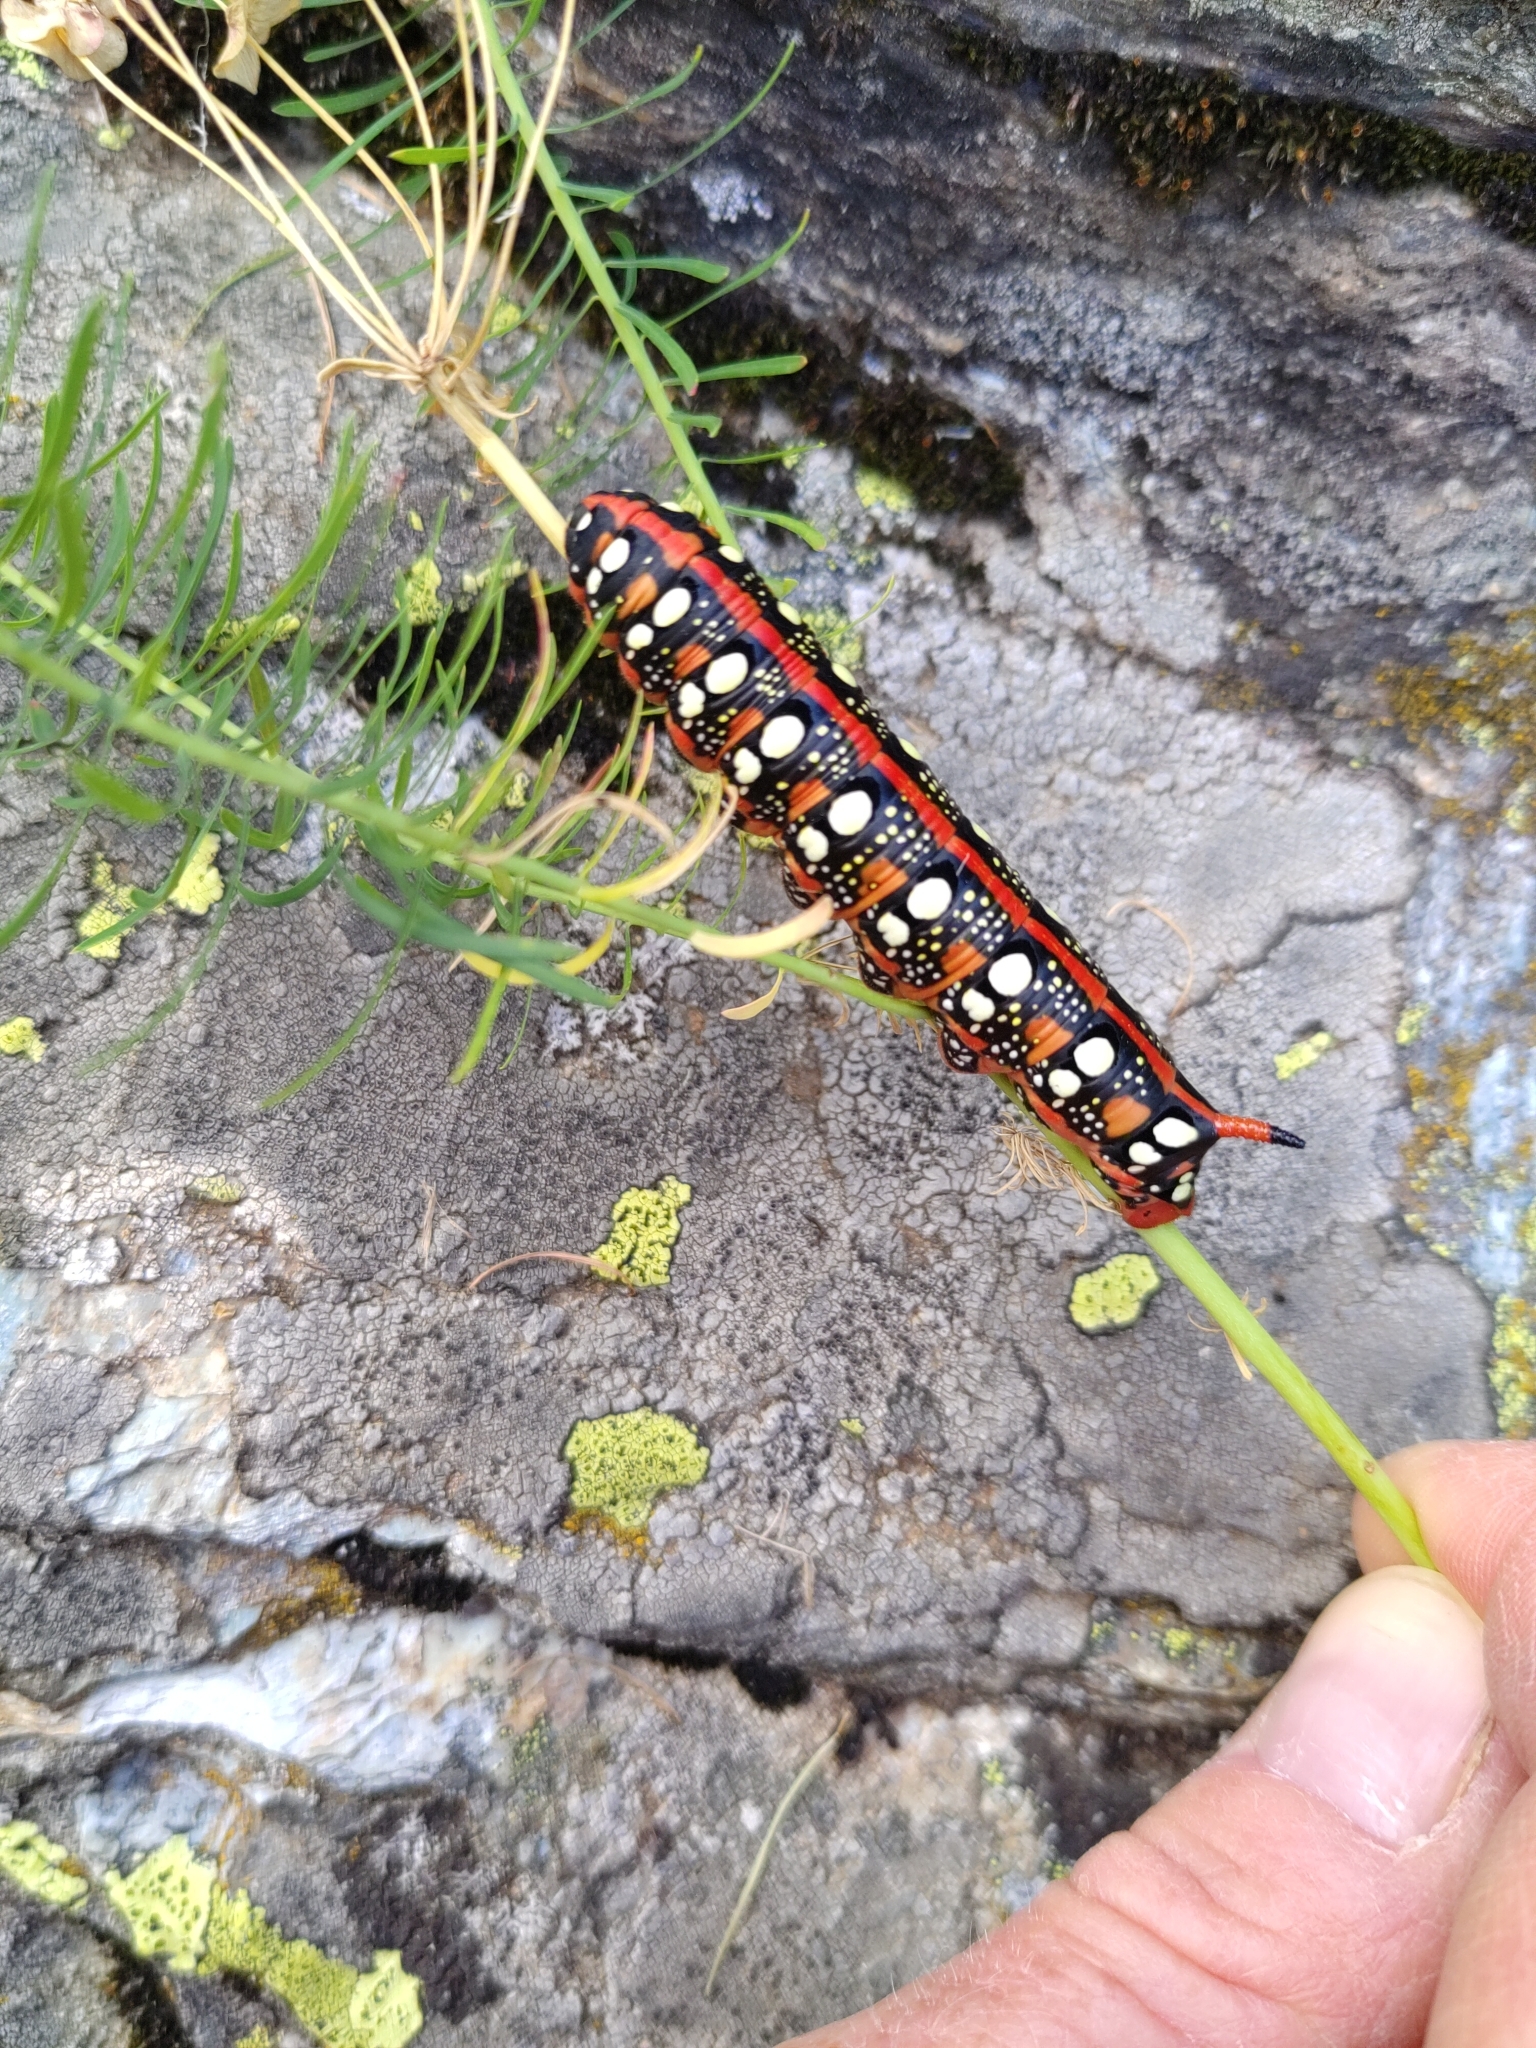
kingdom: Animalia
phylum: Arthropoda
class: Insecta
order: Lepidoptera
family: Sphingidae
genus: Hyles
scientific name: Hyles euphorbiae
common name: Spurge hawk-moth
